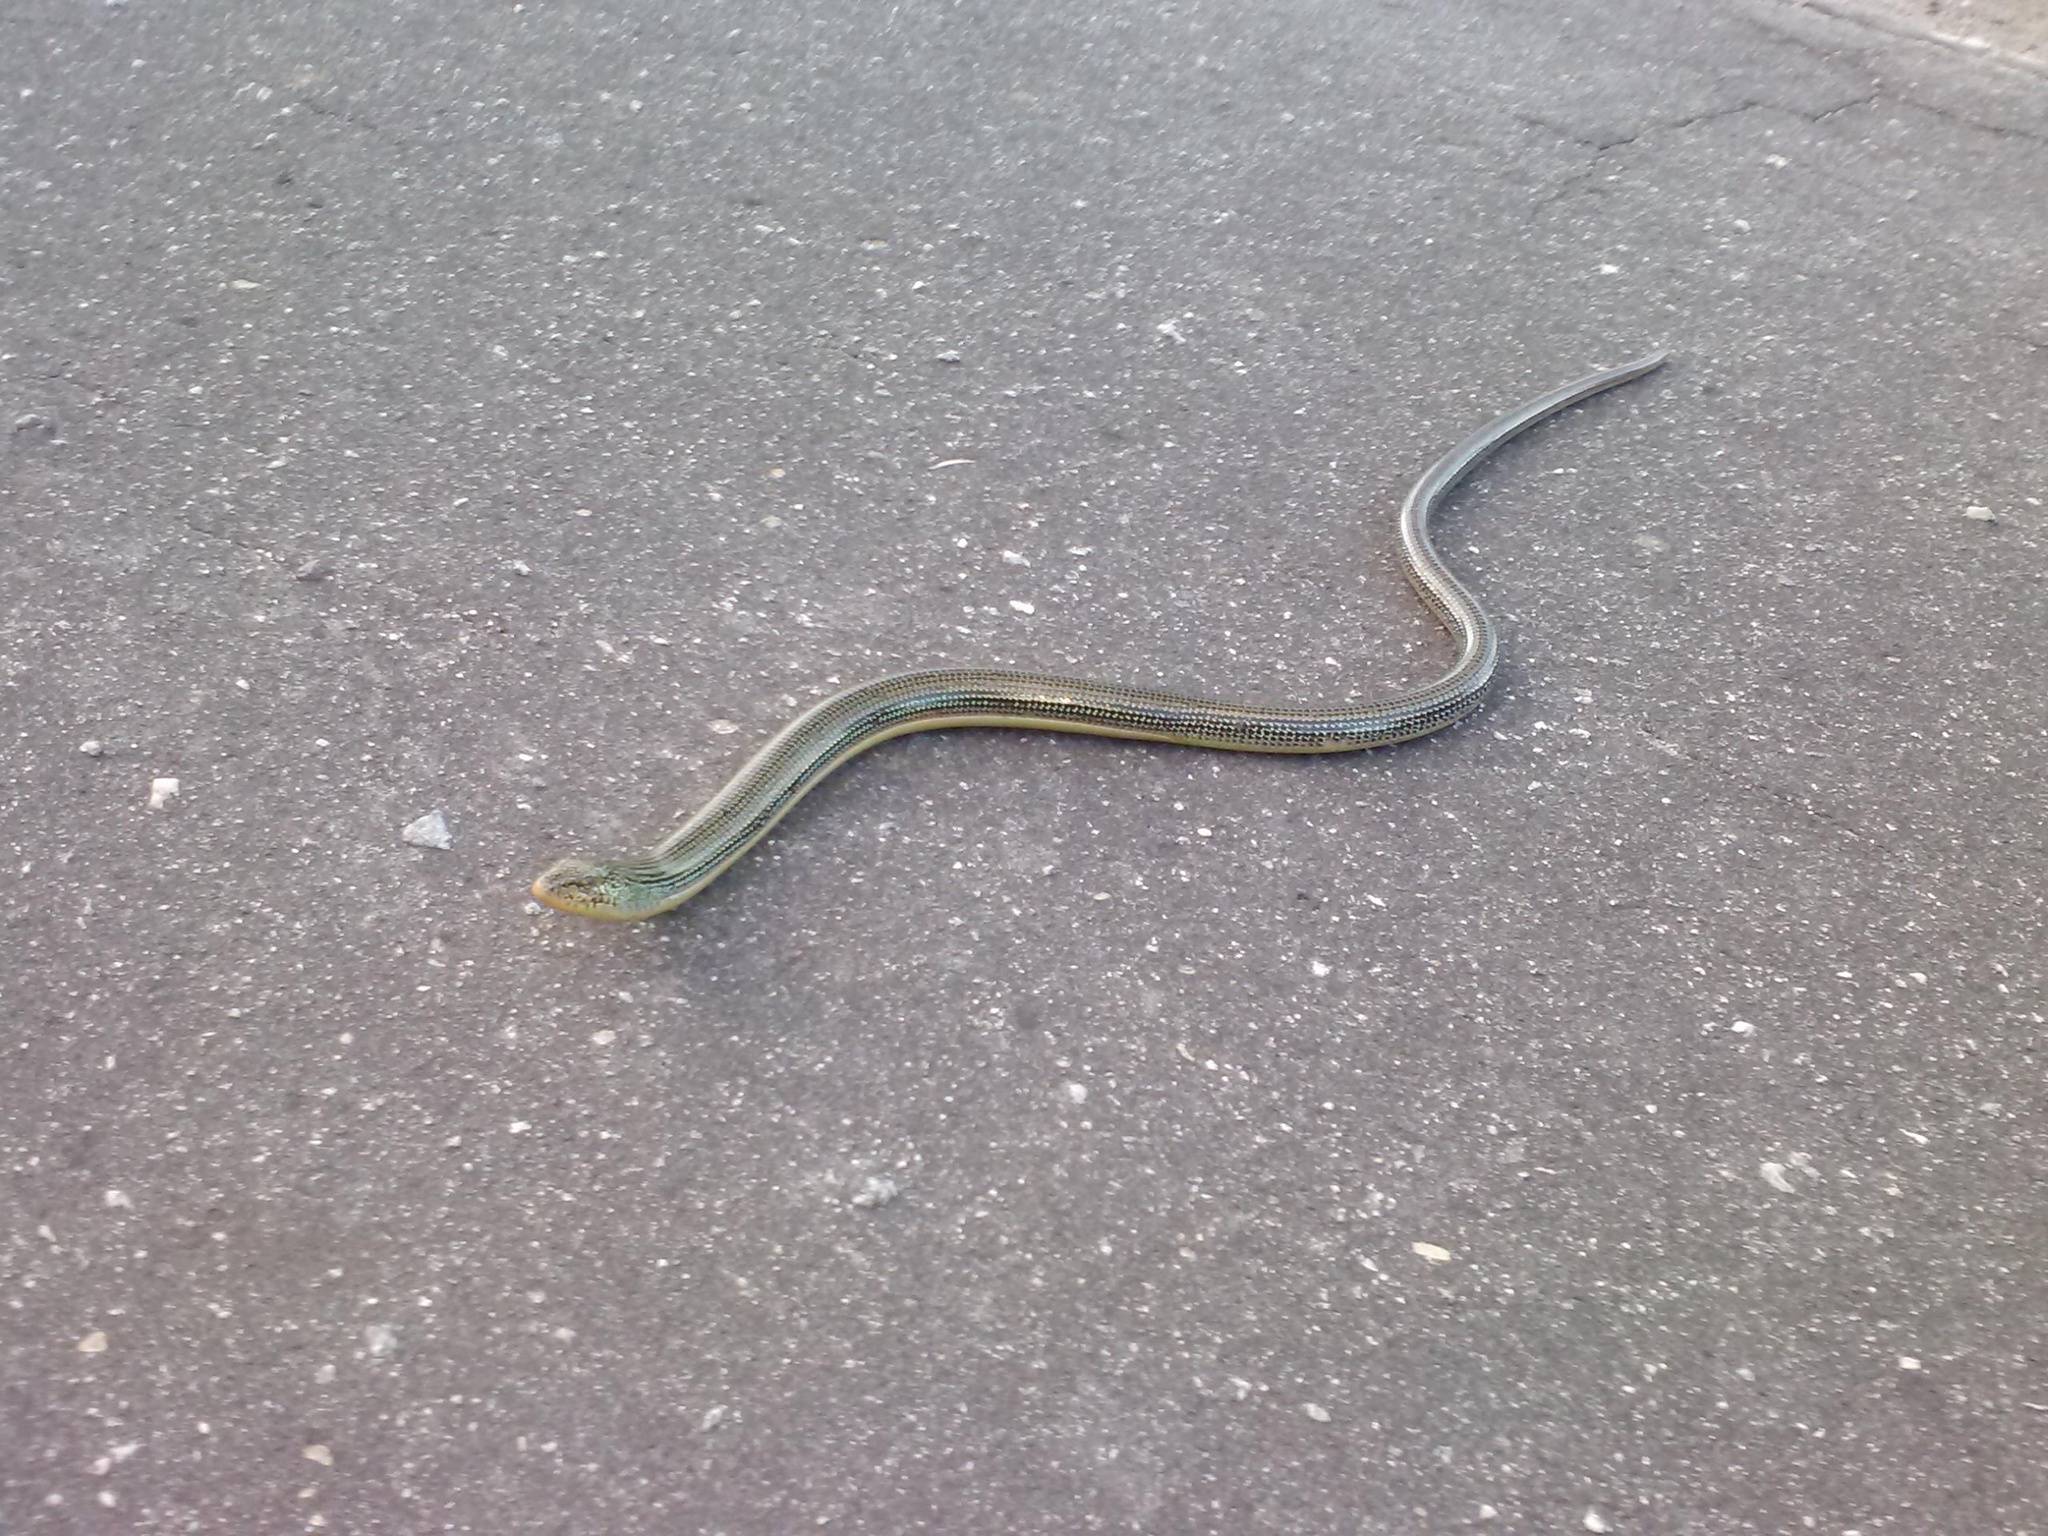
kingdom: Animalia
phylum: Chordata
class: Squamata
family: Anguidae
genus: Ophisaurus
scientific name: Ophisaurus ventralis
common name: Eastern glass lizard
